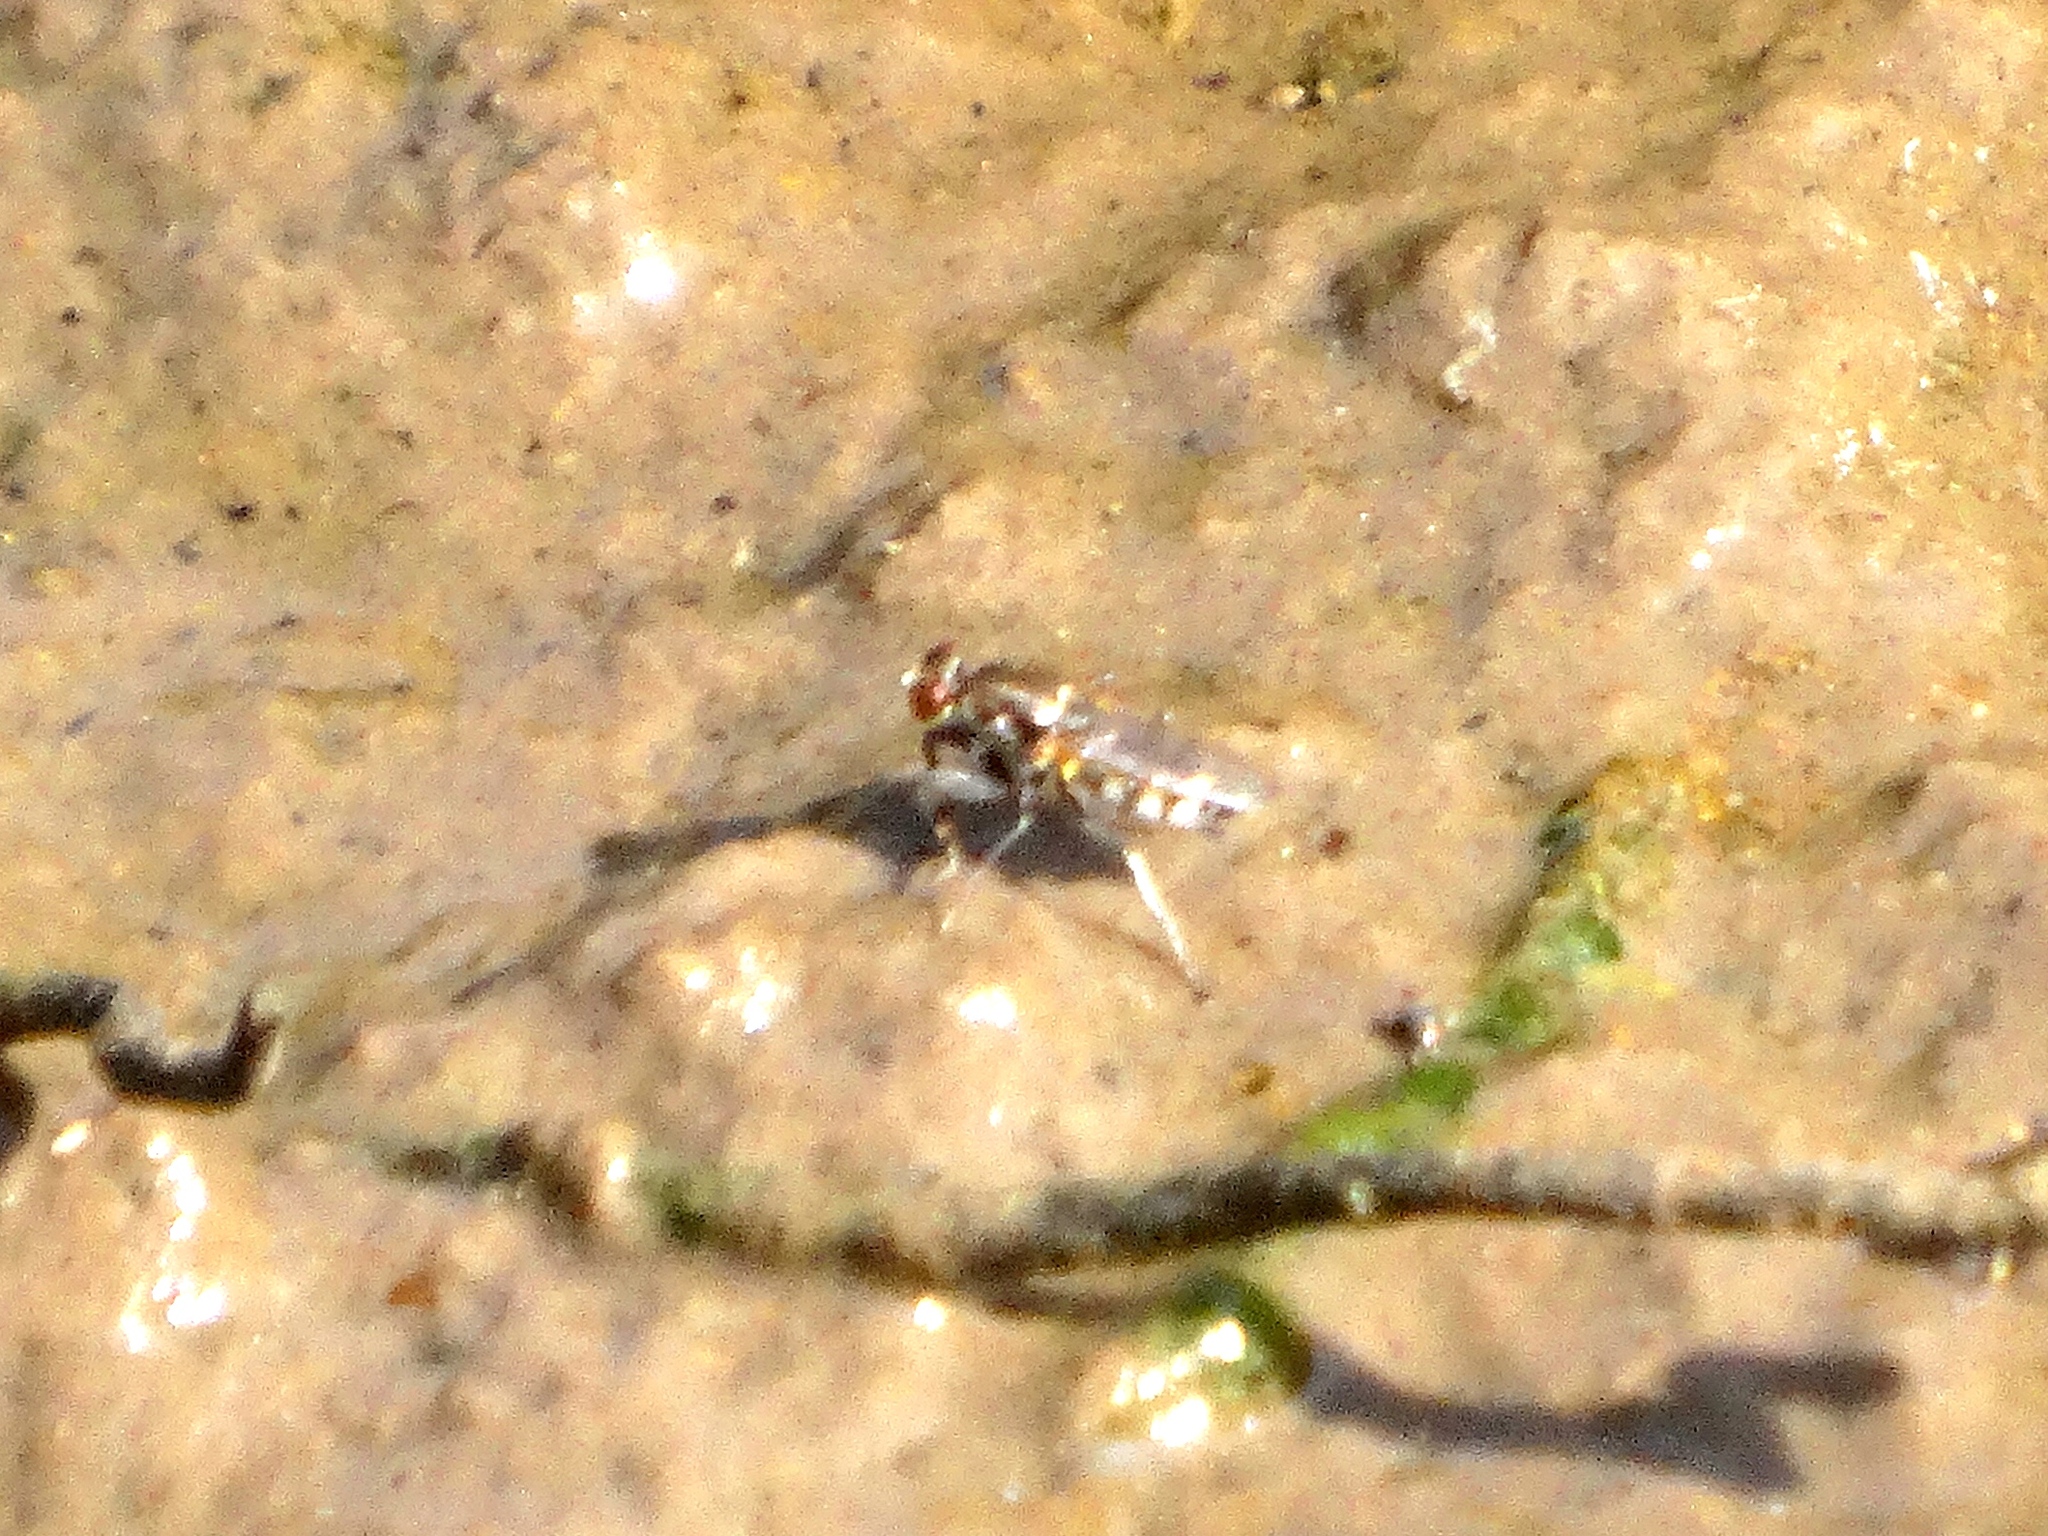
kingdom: Animalia
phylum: Arthropoda
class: Insecta
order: Diptera
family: Ephydridae
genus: Ochthera
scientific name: Ochthera
